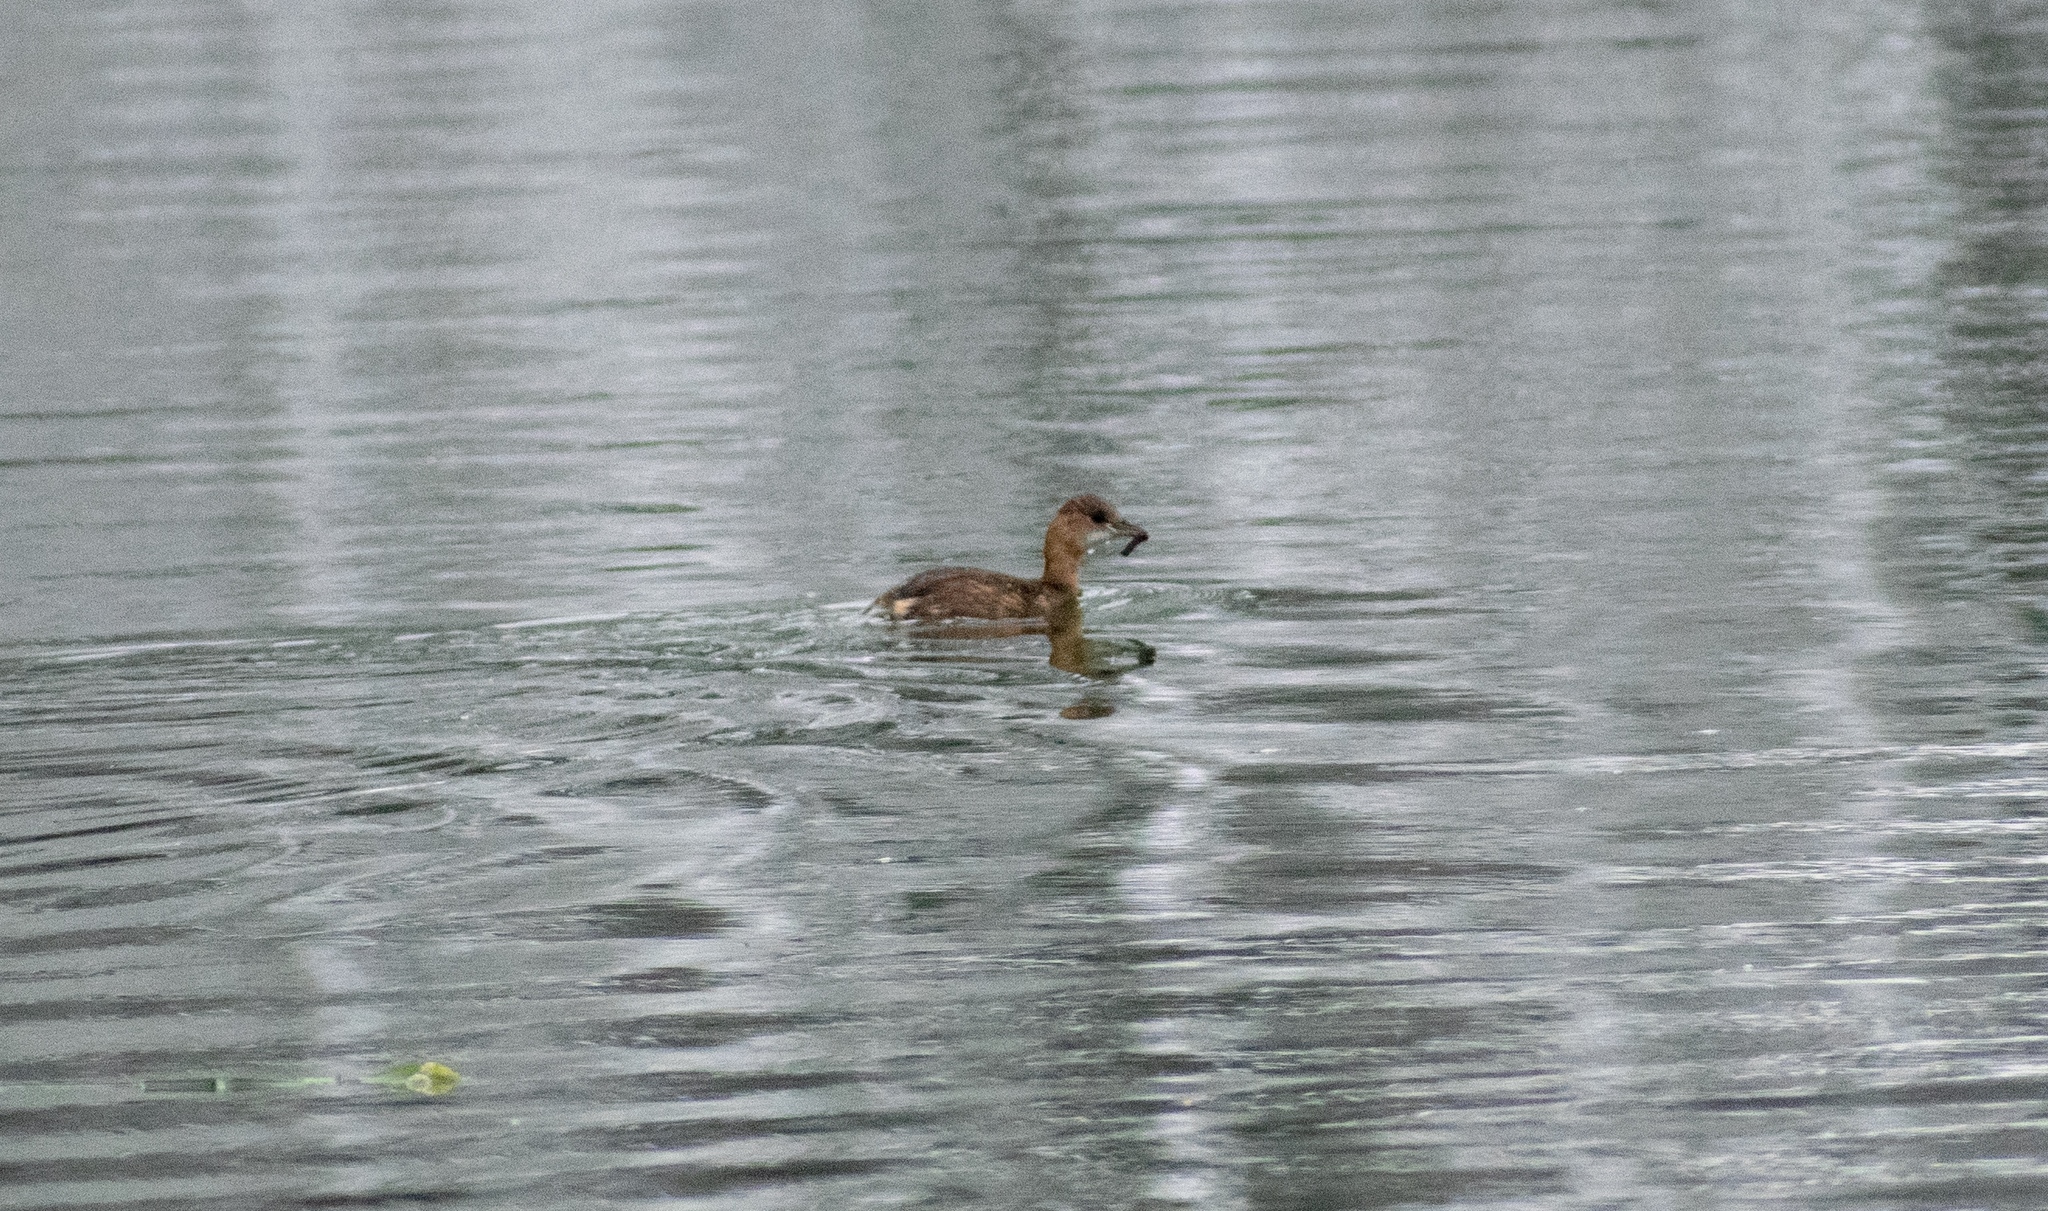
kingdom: Animalia
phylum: Chordata
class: Aves
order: Podicipediformes
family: Podicipedidae
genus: Tachybaptus
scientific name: Tachybaptus ruficollis
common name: Little grebe
